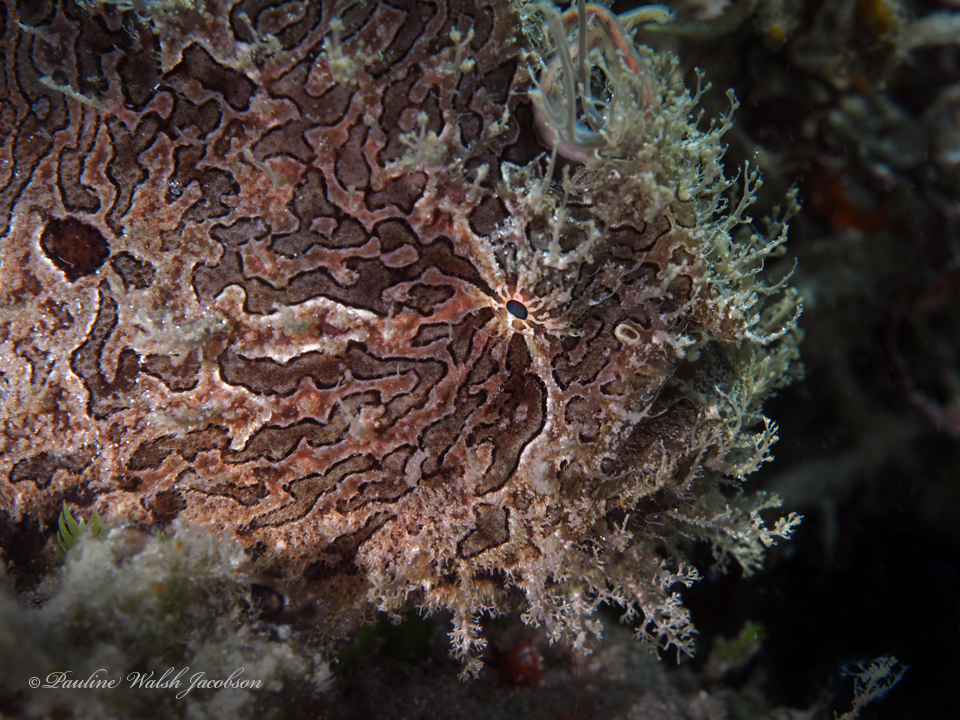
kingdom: Animalia
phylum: Chordata
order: Lophiiformes
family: Antennariidae
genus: Antennarius
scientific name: Antennarius striatus
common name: Striated frogfish
